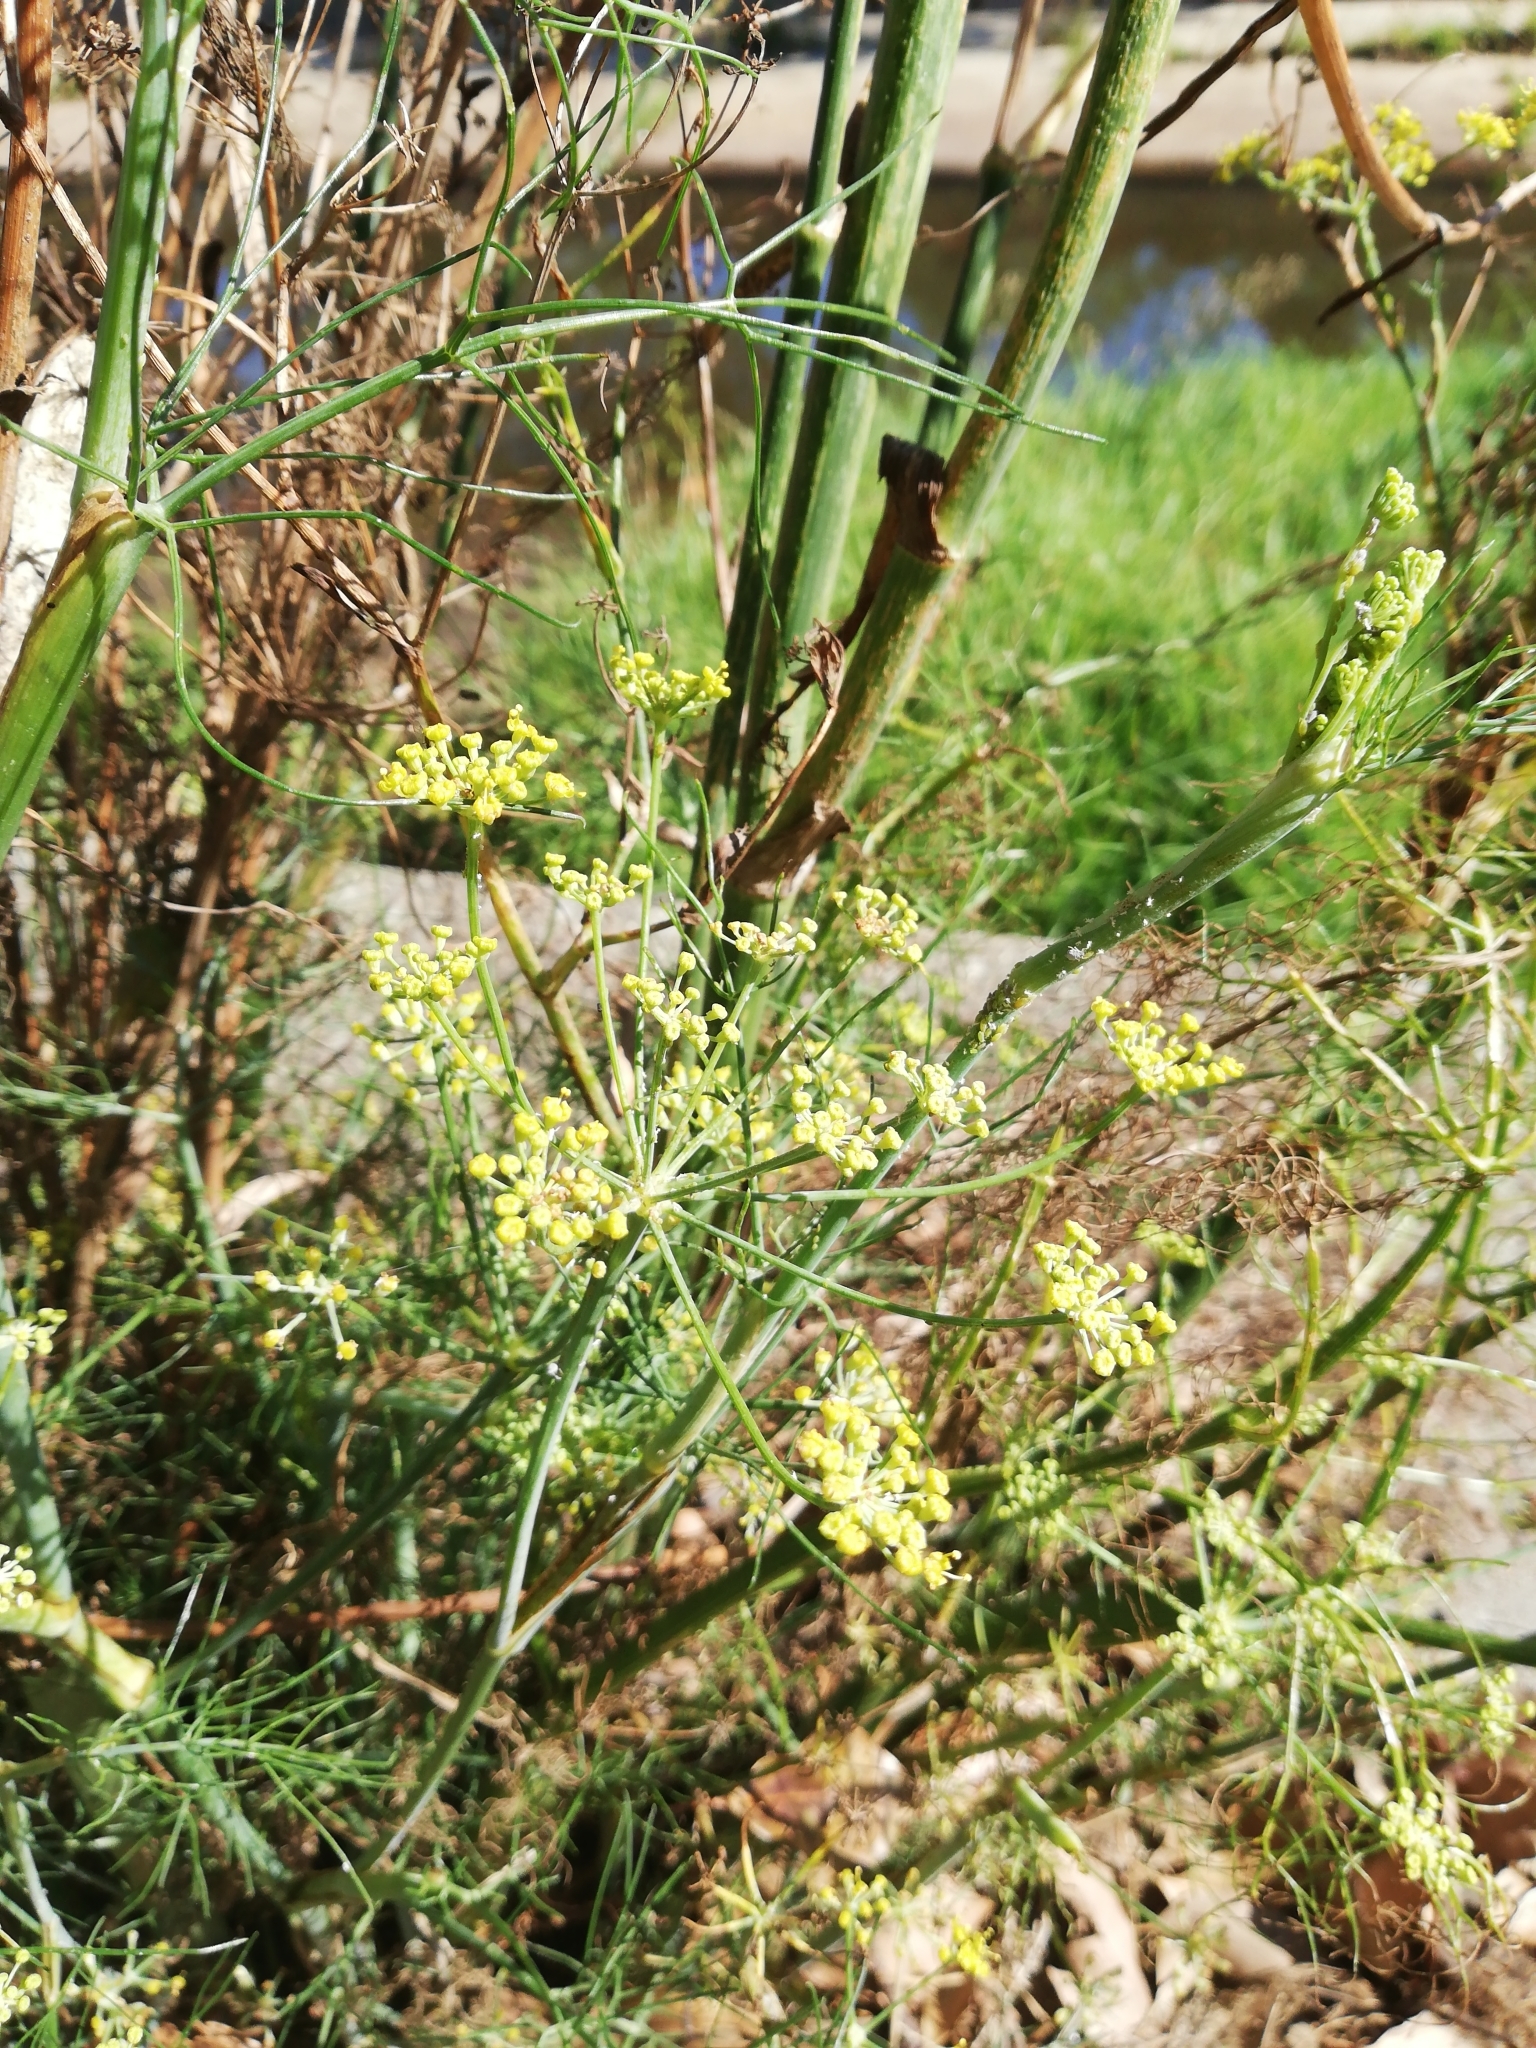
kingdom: Plantae
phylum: Tracheophyta
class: Magnoliopsida
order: Apiales
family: Apiaceae
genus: Foeniculum
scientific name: Foeniculum vulgare
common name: Fennel
